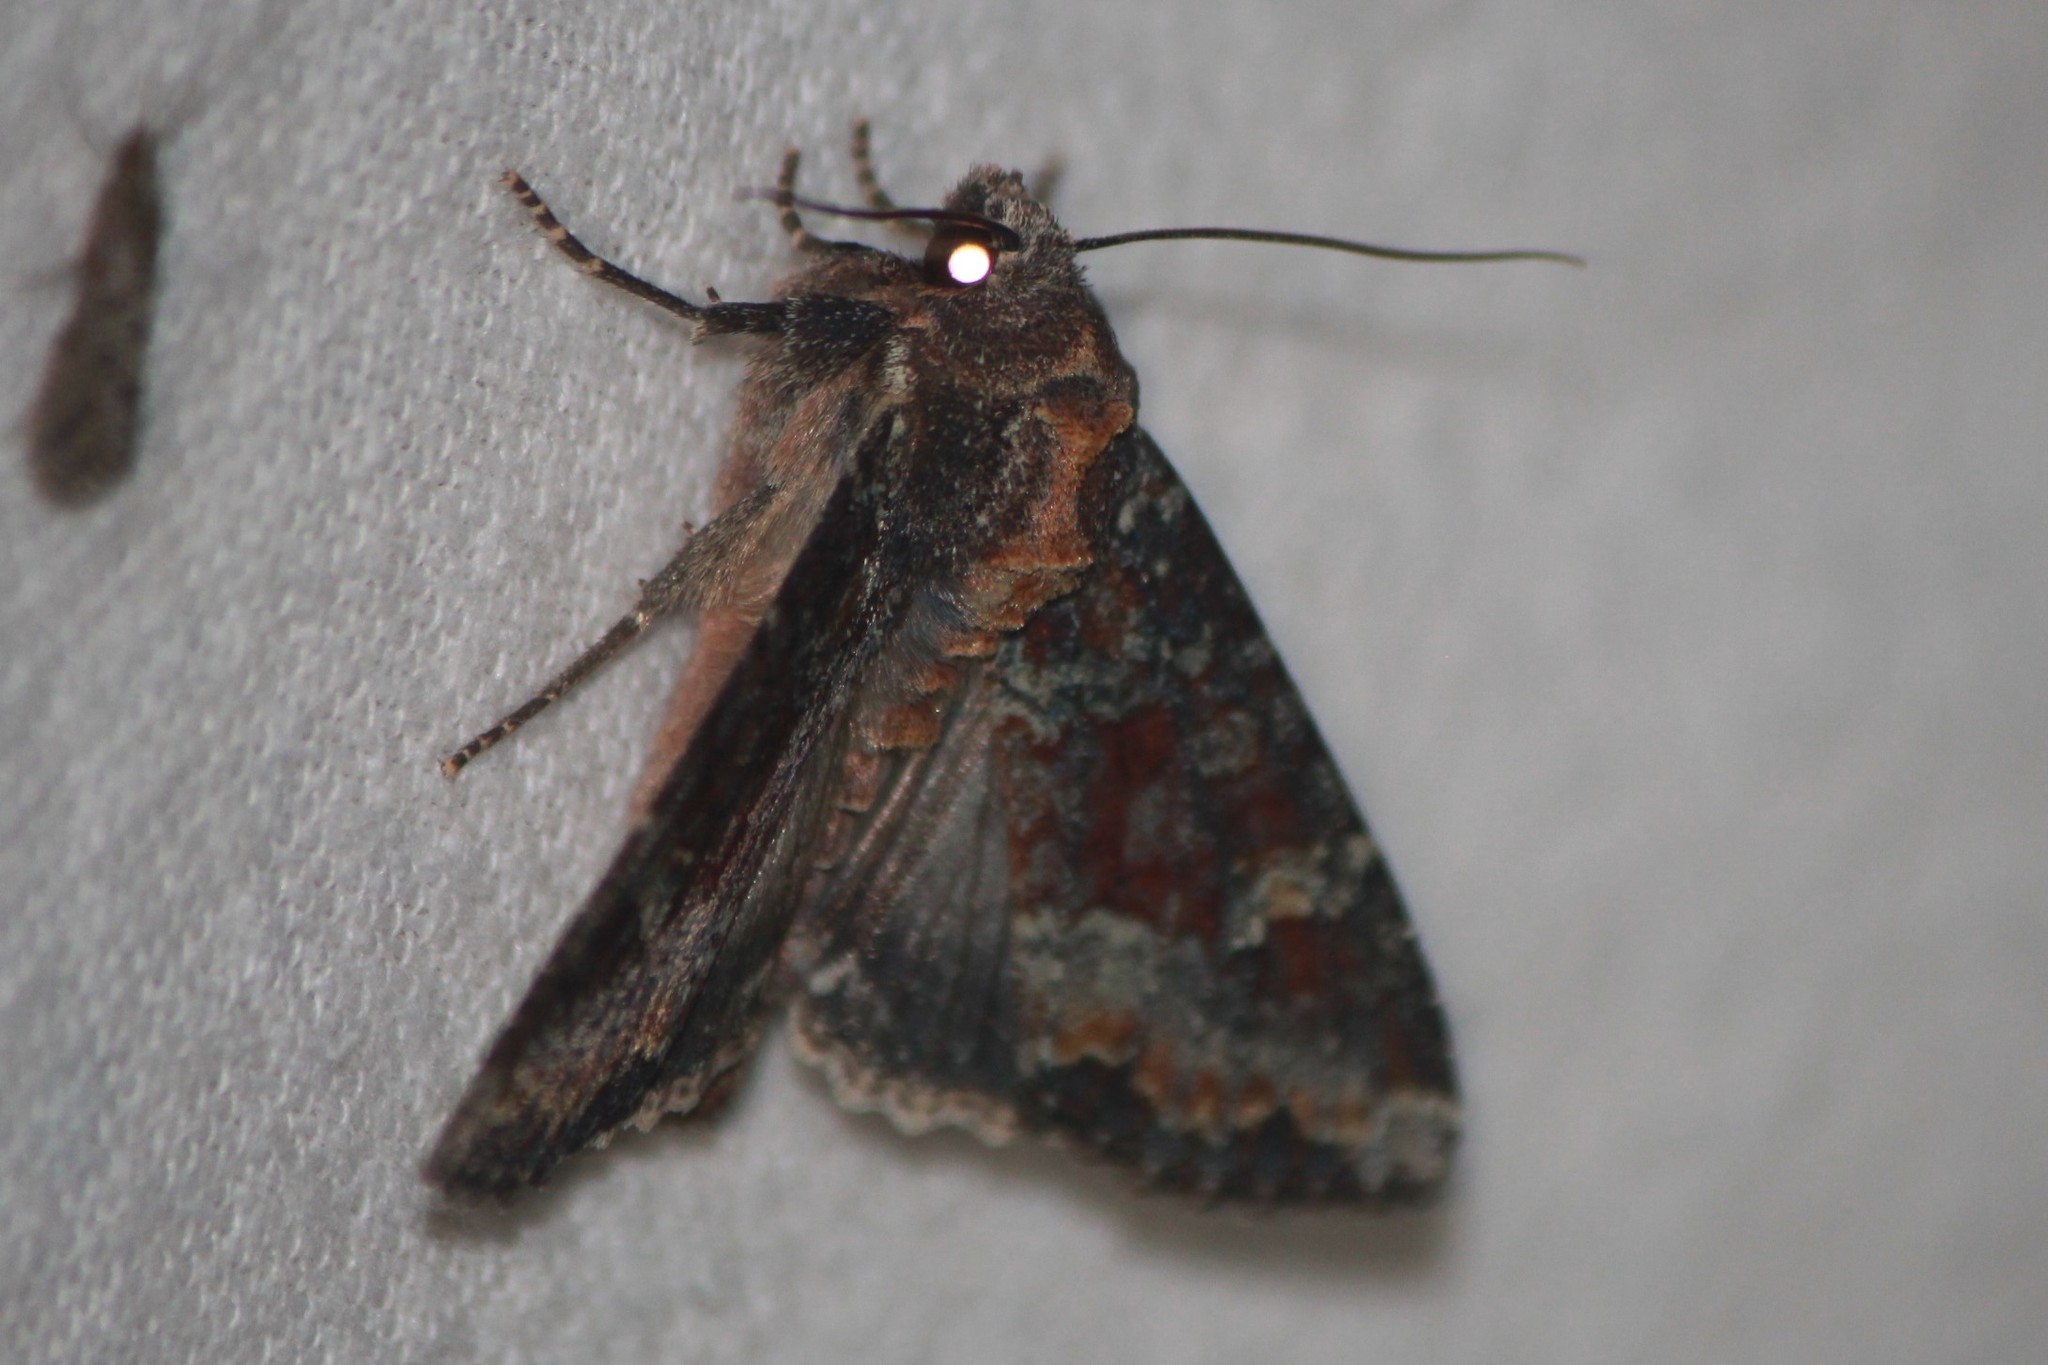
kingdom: Animalia
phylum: Arthropoda
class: Insecta
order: Lepidoptera
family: Noctuidae
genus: Apamea
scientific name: Apamea amputatrix
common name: Yellow-headed cutworm moth
